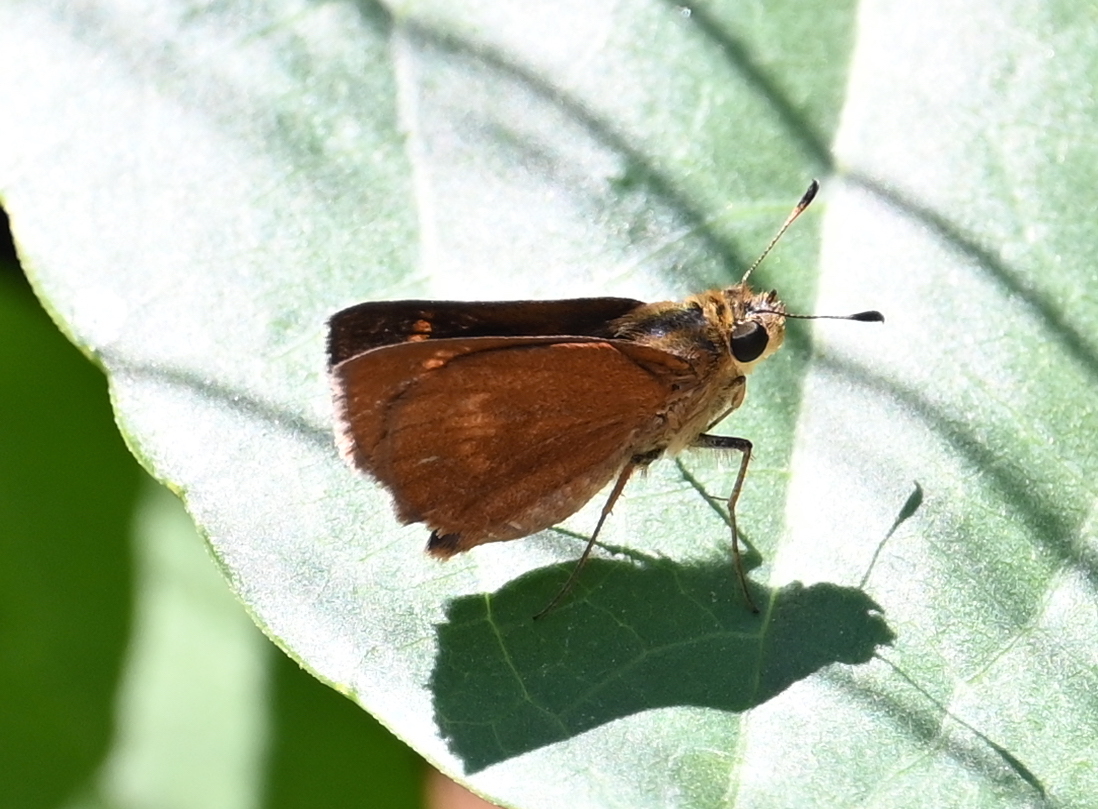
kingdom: Animalia
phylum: Arthropoda
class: Insecta
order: Lepidoptera
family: Hesperiidae
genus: Polites
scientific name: Polites otho
